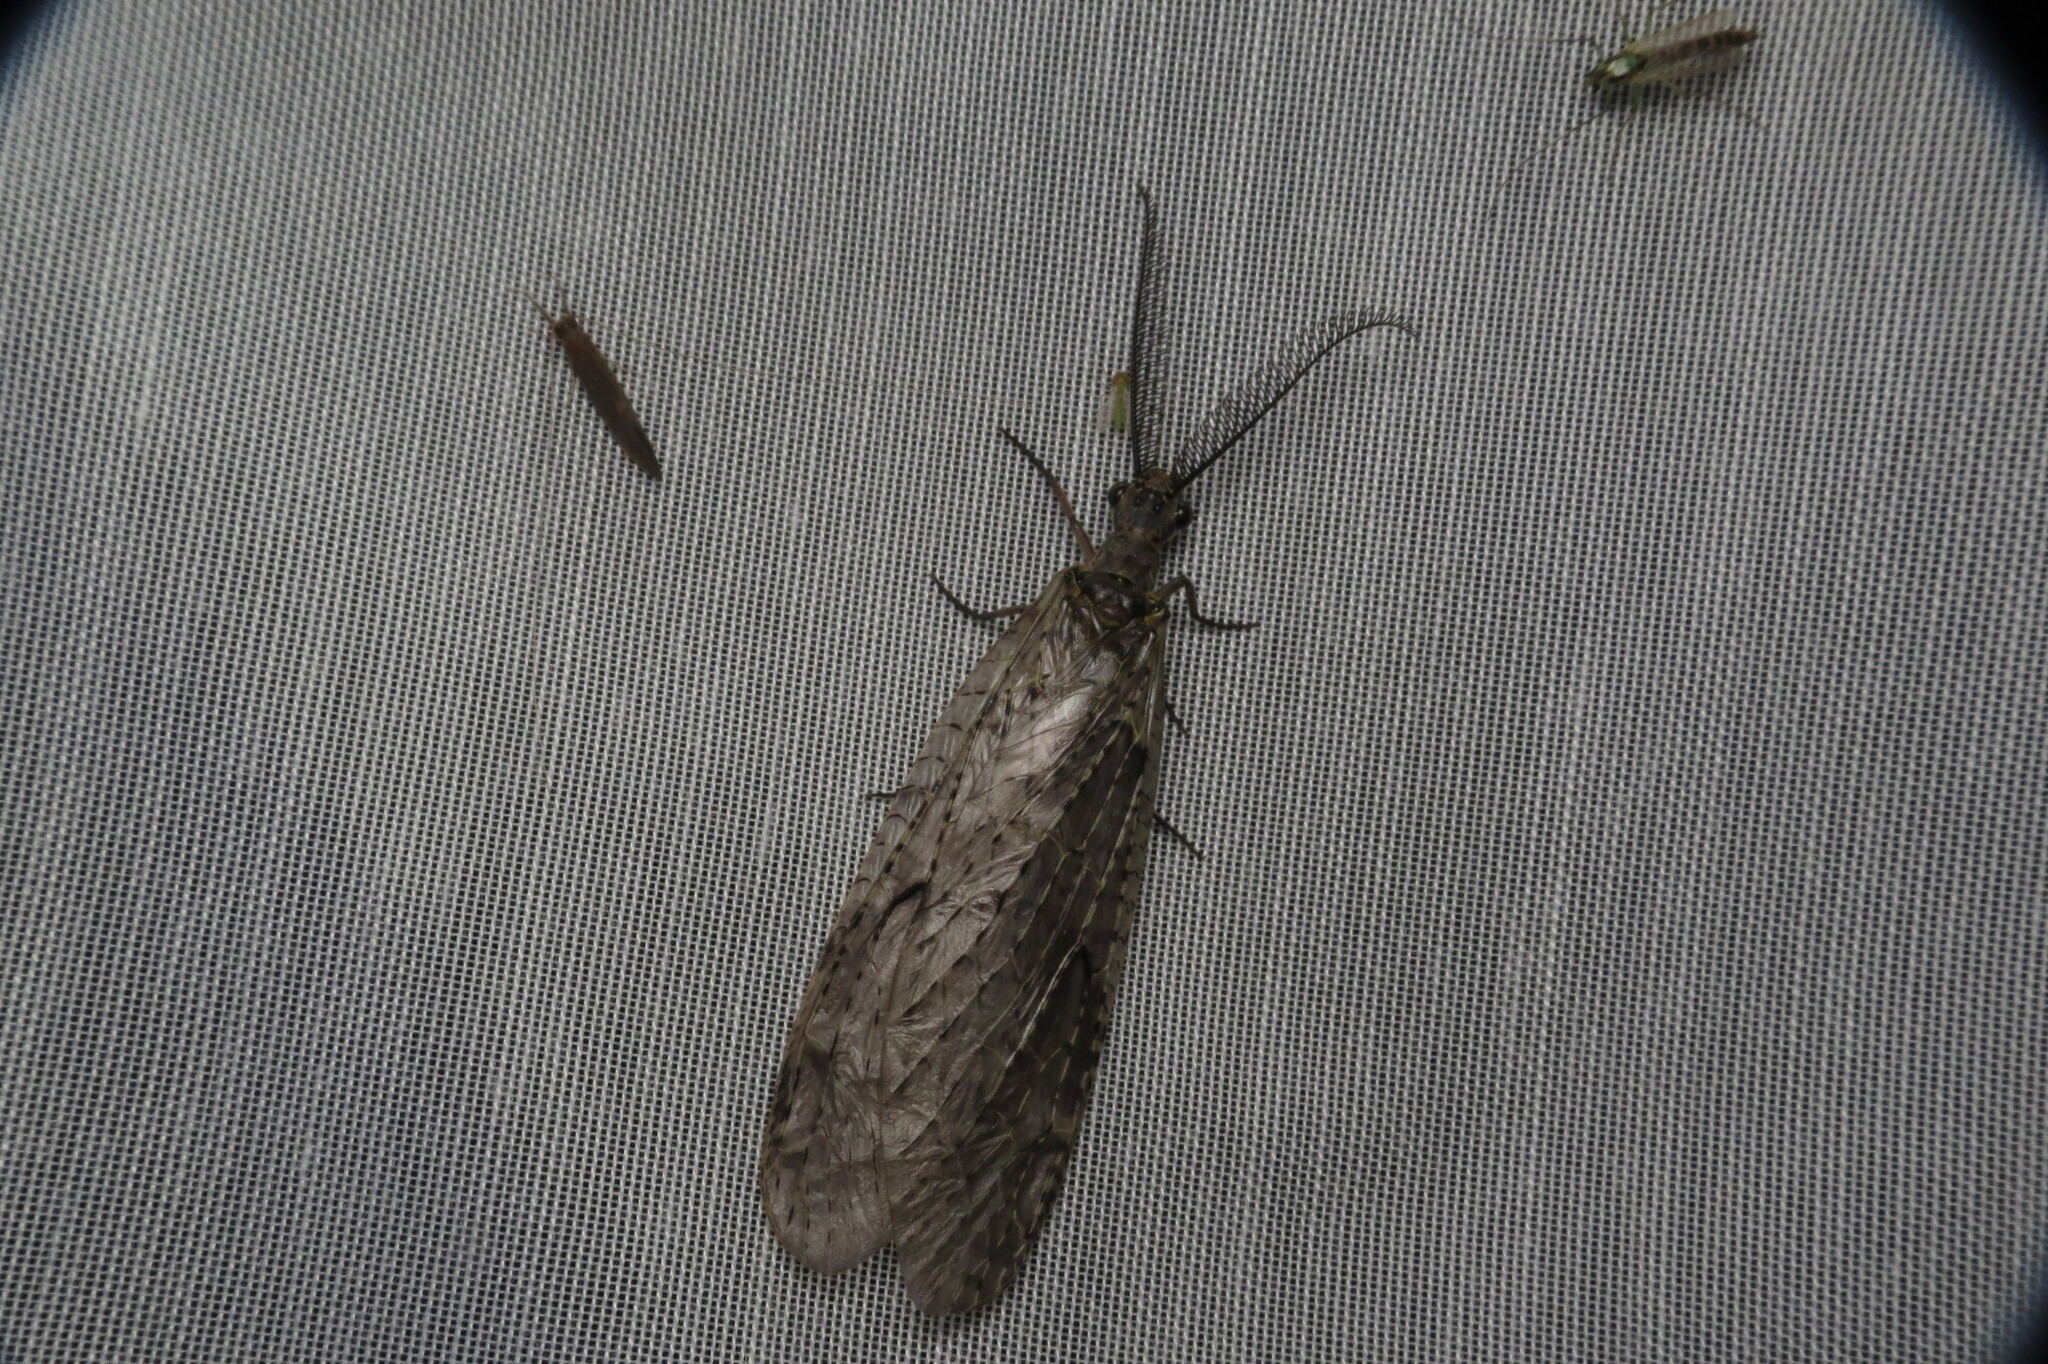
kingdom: Animalia
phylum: Arthropoda
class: Insecta
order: Megaloptera
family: Corydalidae
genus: Chauliodes
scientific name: Chauliodes rastricornis
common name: Spring fishfly
